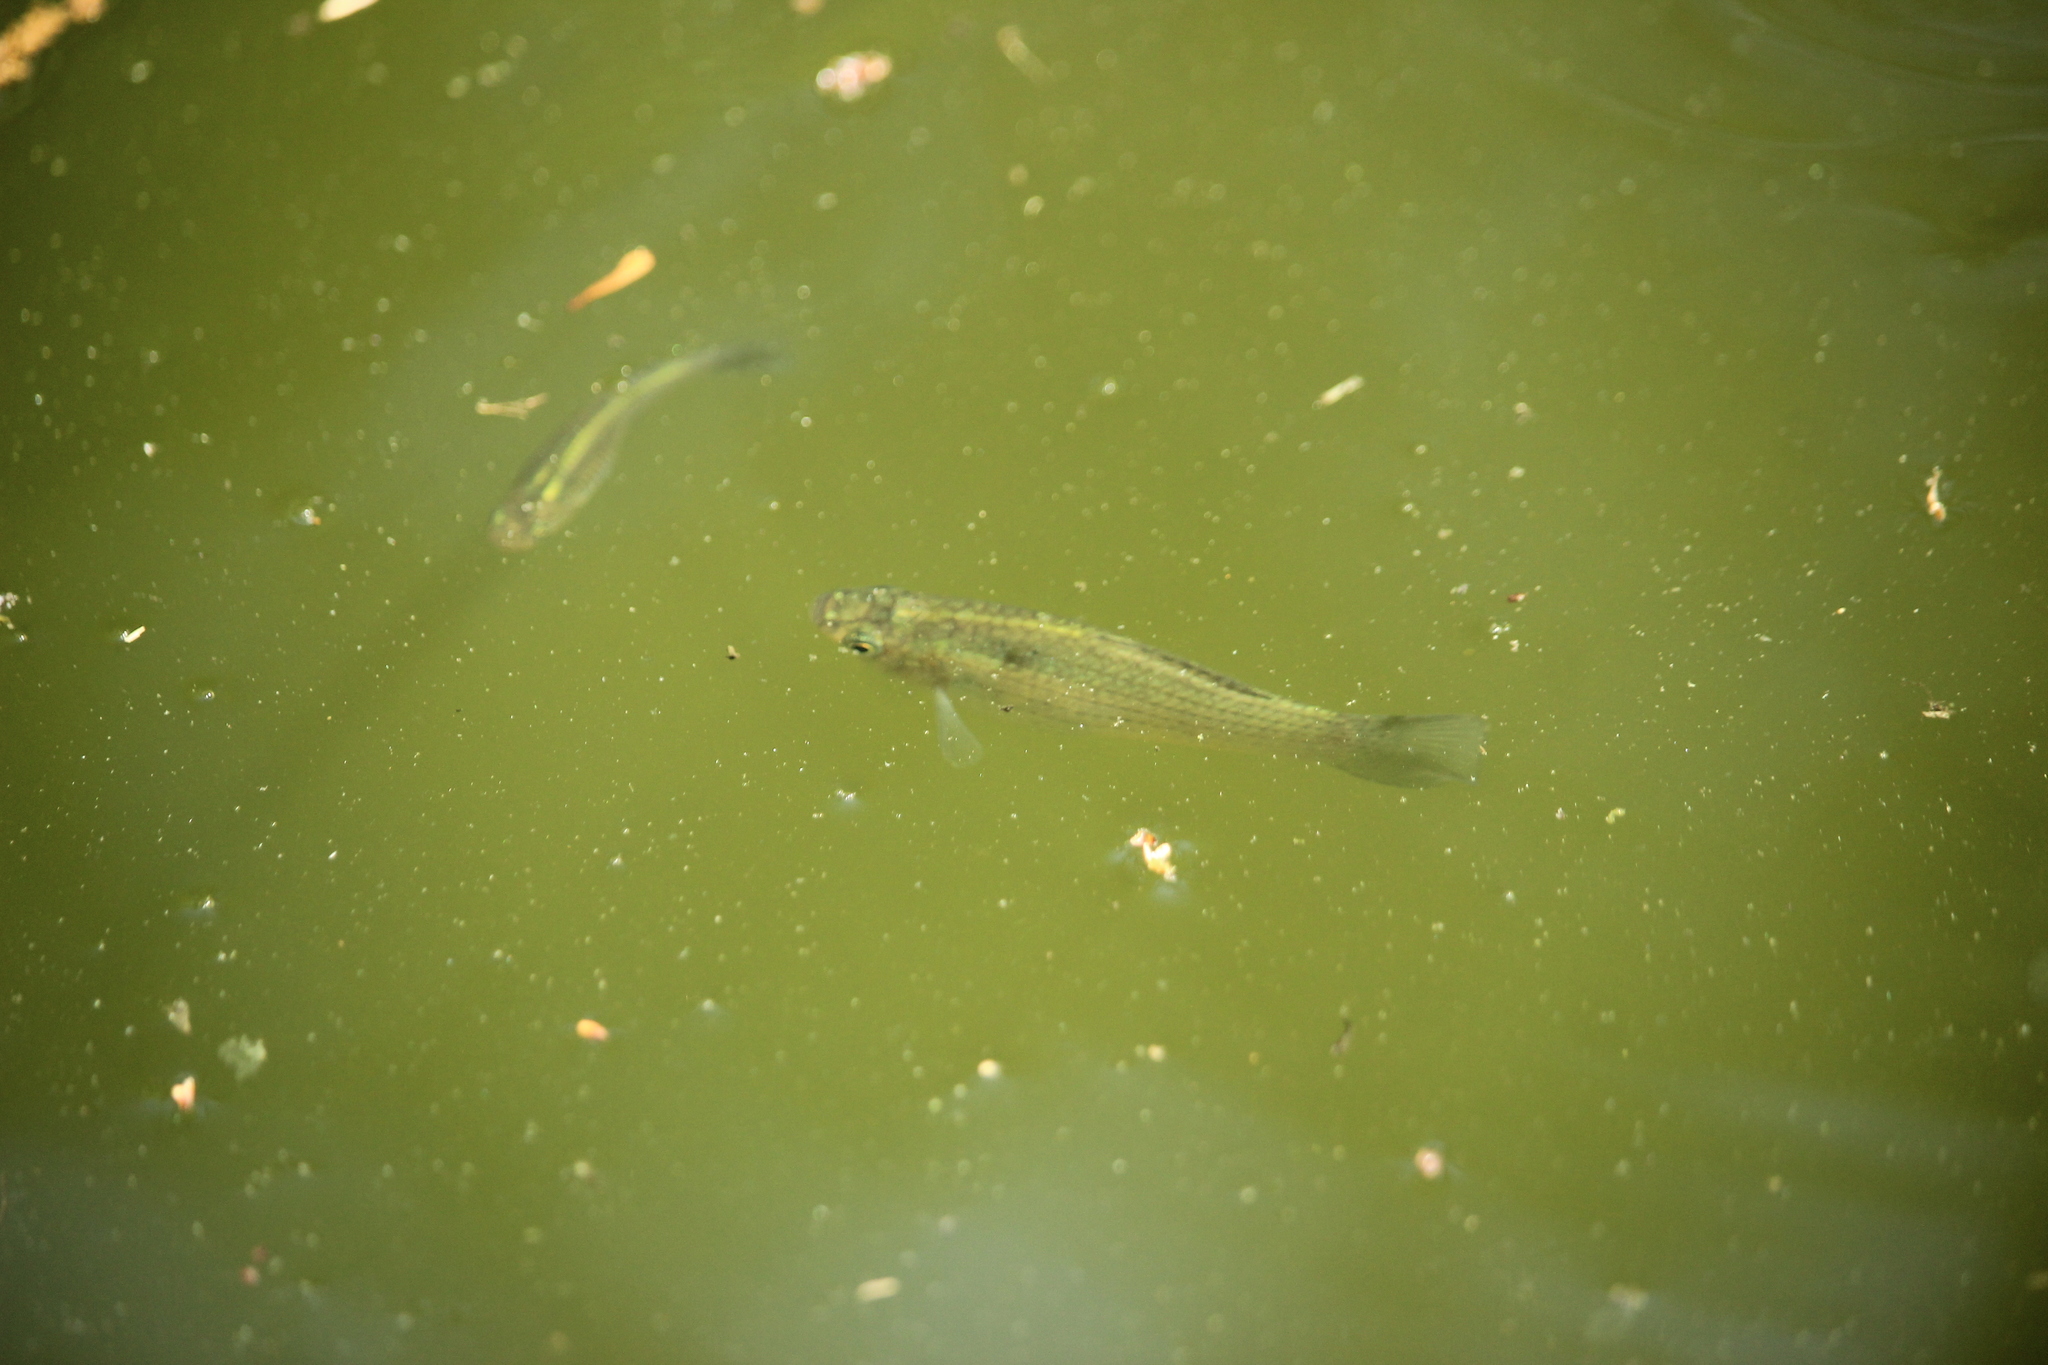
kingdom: Animalia
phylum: Chordata
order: Cyprinodontiformes
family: Poeciliidae
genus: Poecilia
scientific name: Poecilia latipinna
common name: Sailfin molly
